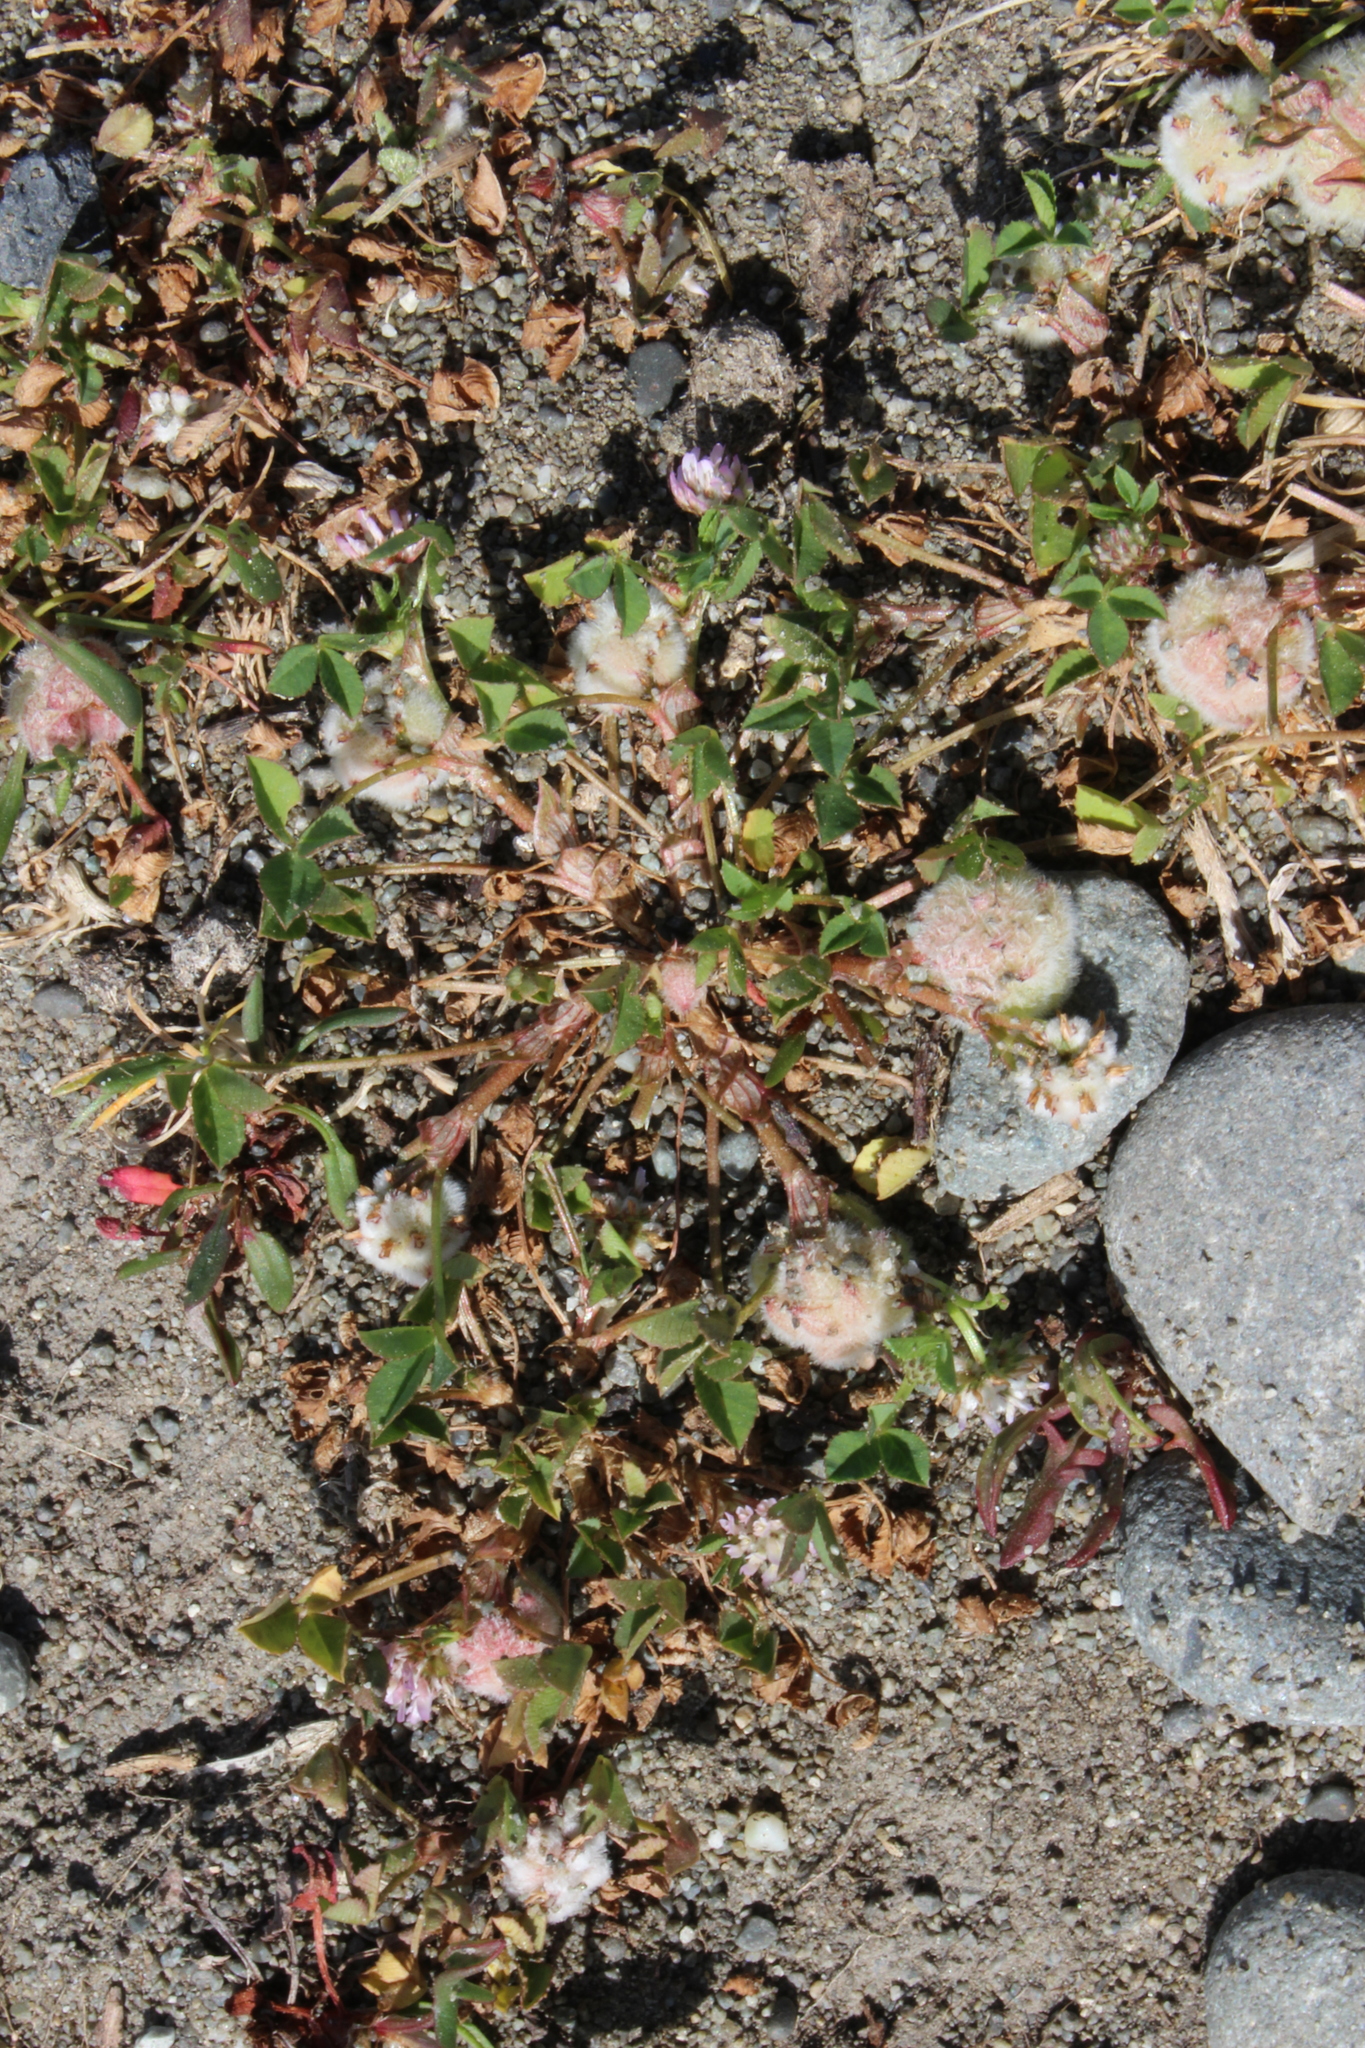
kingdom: Plantae
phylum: Tracheophyta
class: Magnoliopsida
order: Fabales
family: Fabaceae
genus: Trifolium
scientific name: Trifolium tomentosum
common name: Woolly clover
